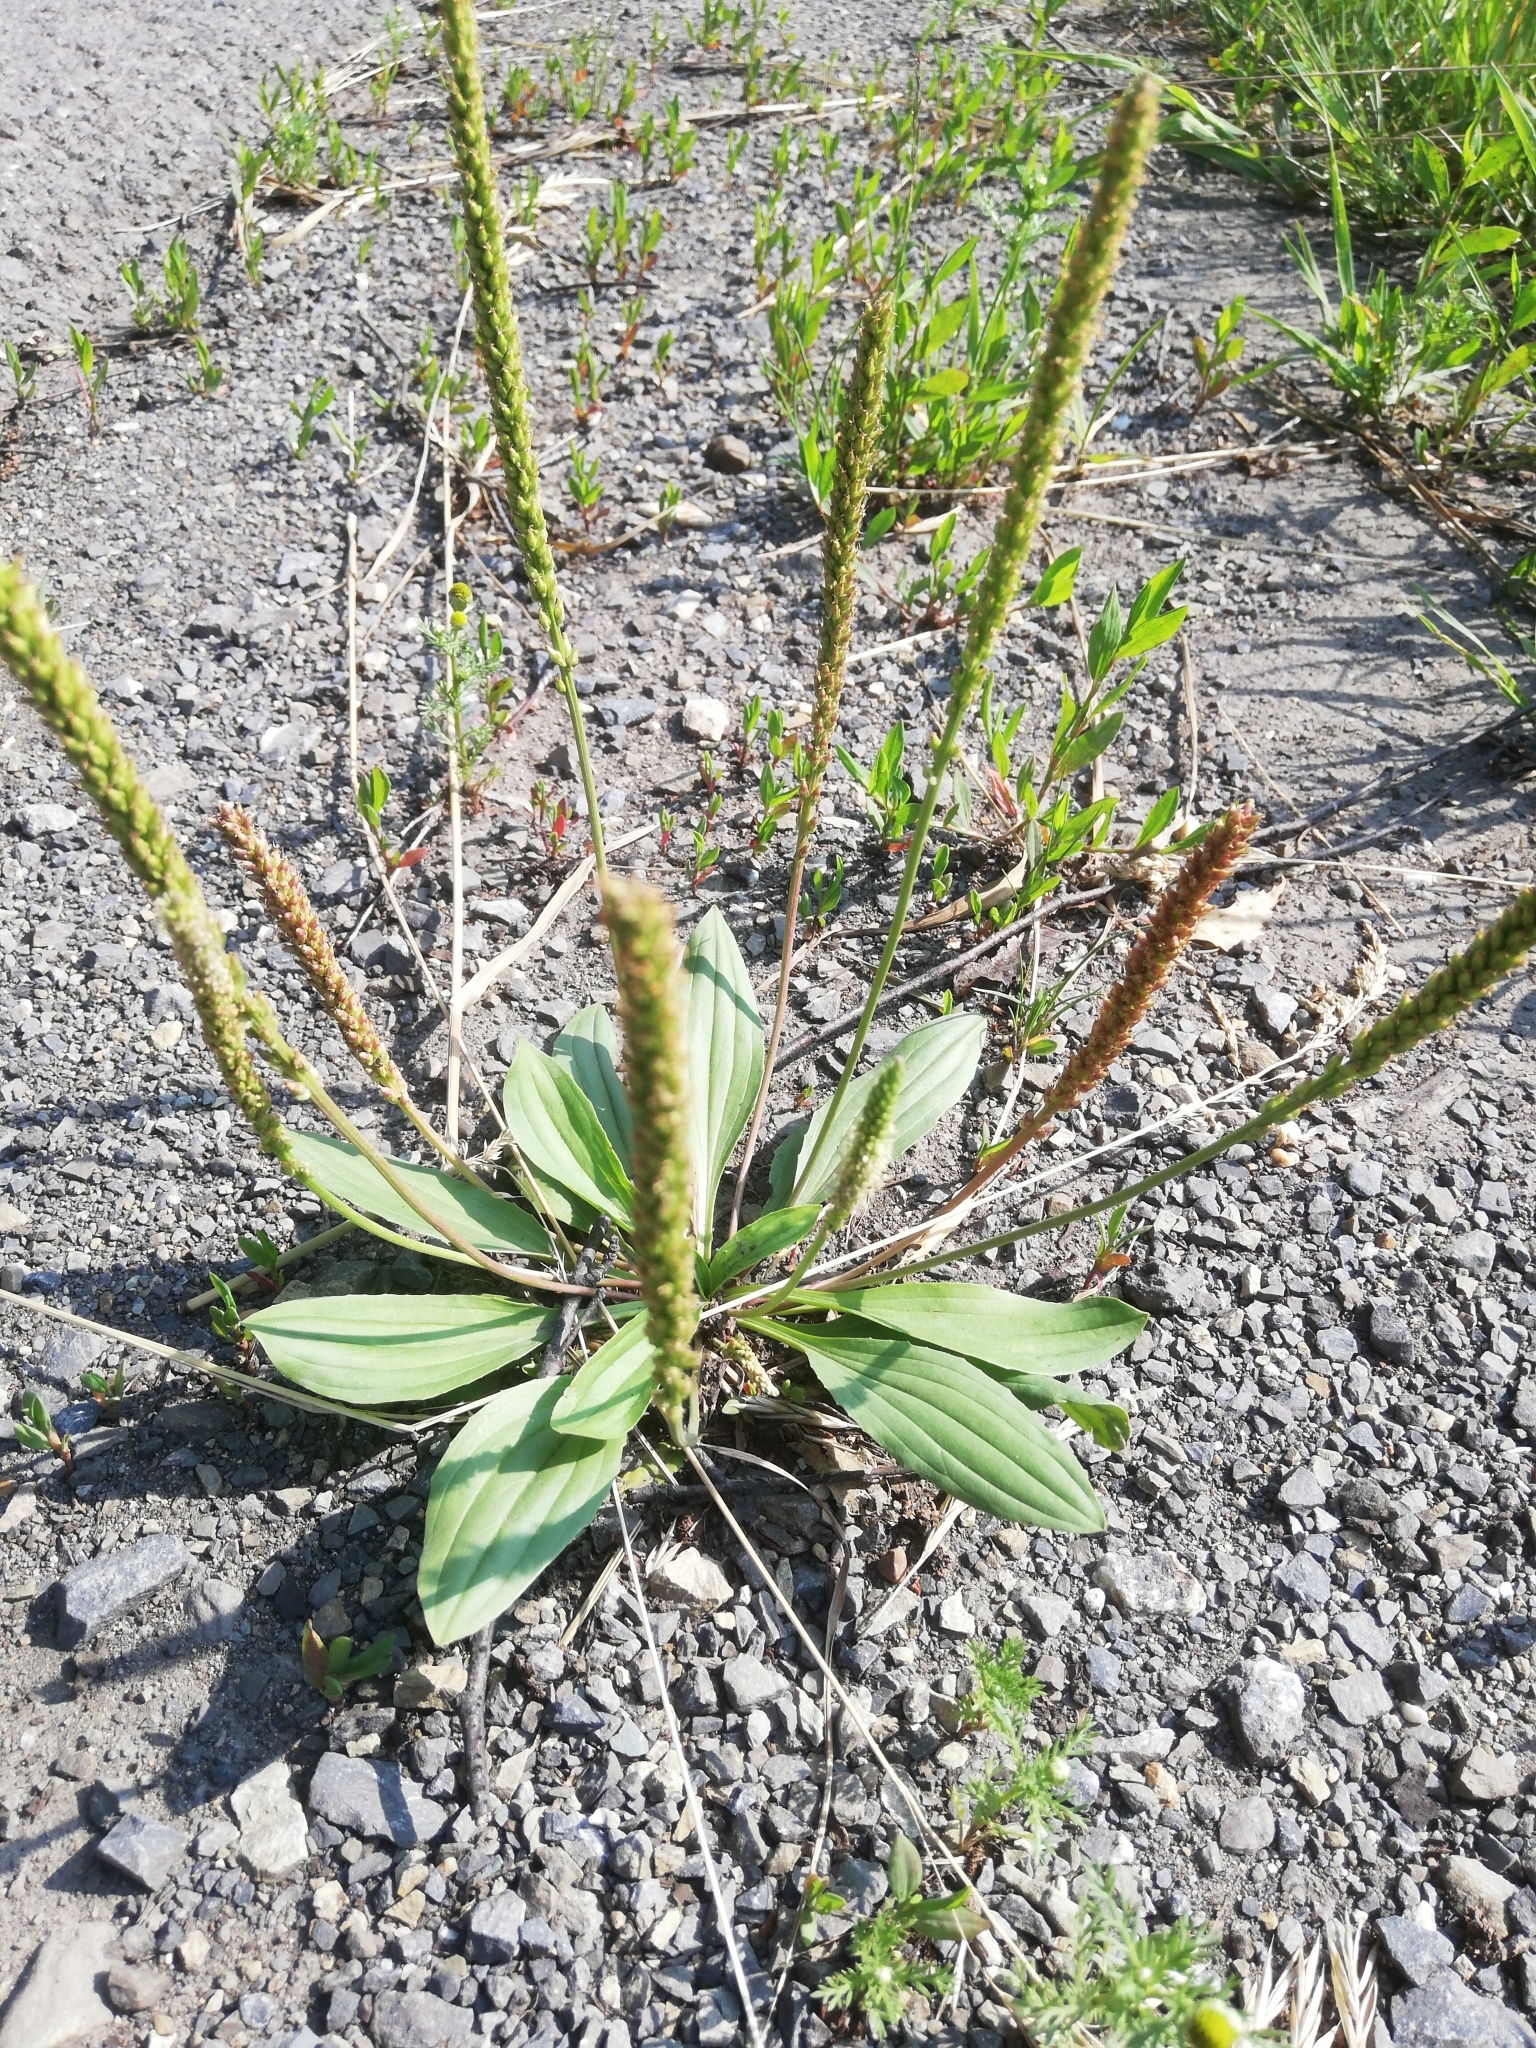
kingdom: Plantae
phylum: Tracheophyta
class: Magnoliopsida
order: Lamiales
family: Plantaginaceae
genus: Plantago
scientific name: Plantago depressa
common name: Depressed plantain
